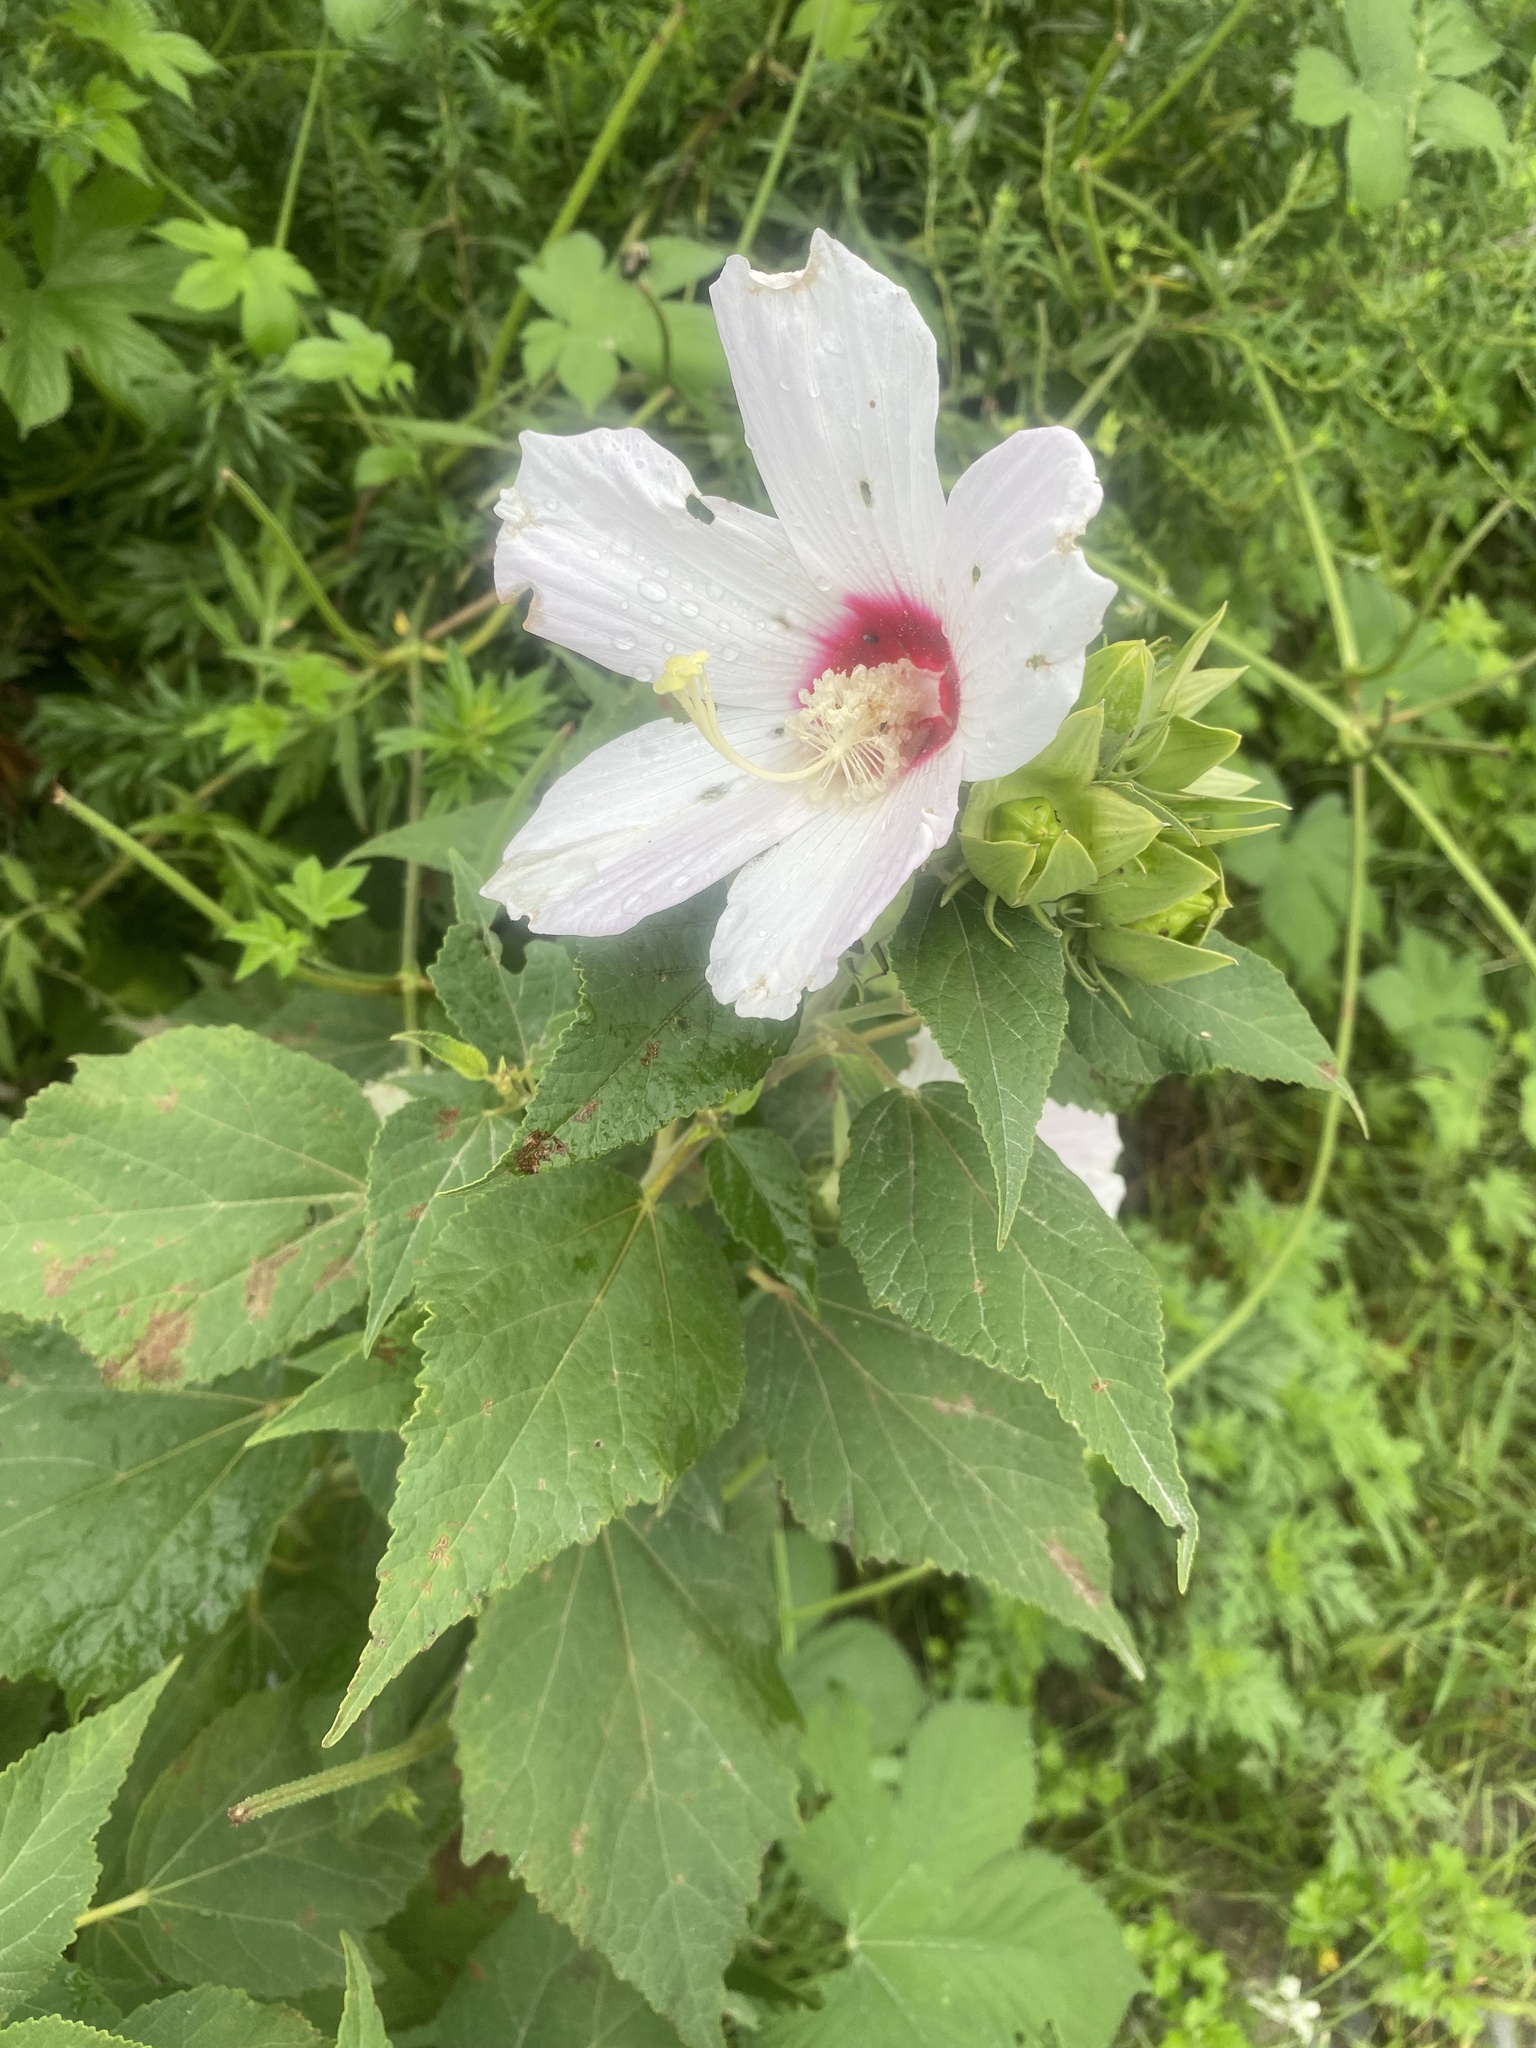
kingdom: Plantae
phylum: Tracheophyta
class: Magnoliopsida
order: Malvales
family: Malvaceae
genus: Hibiscus
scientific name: Hibiscus moscheutos
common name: Common rose-mallow
